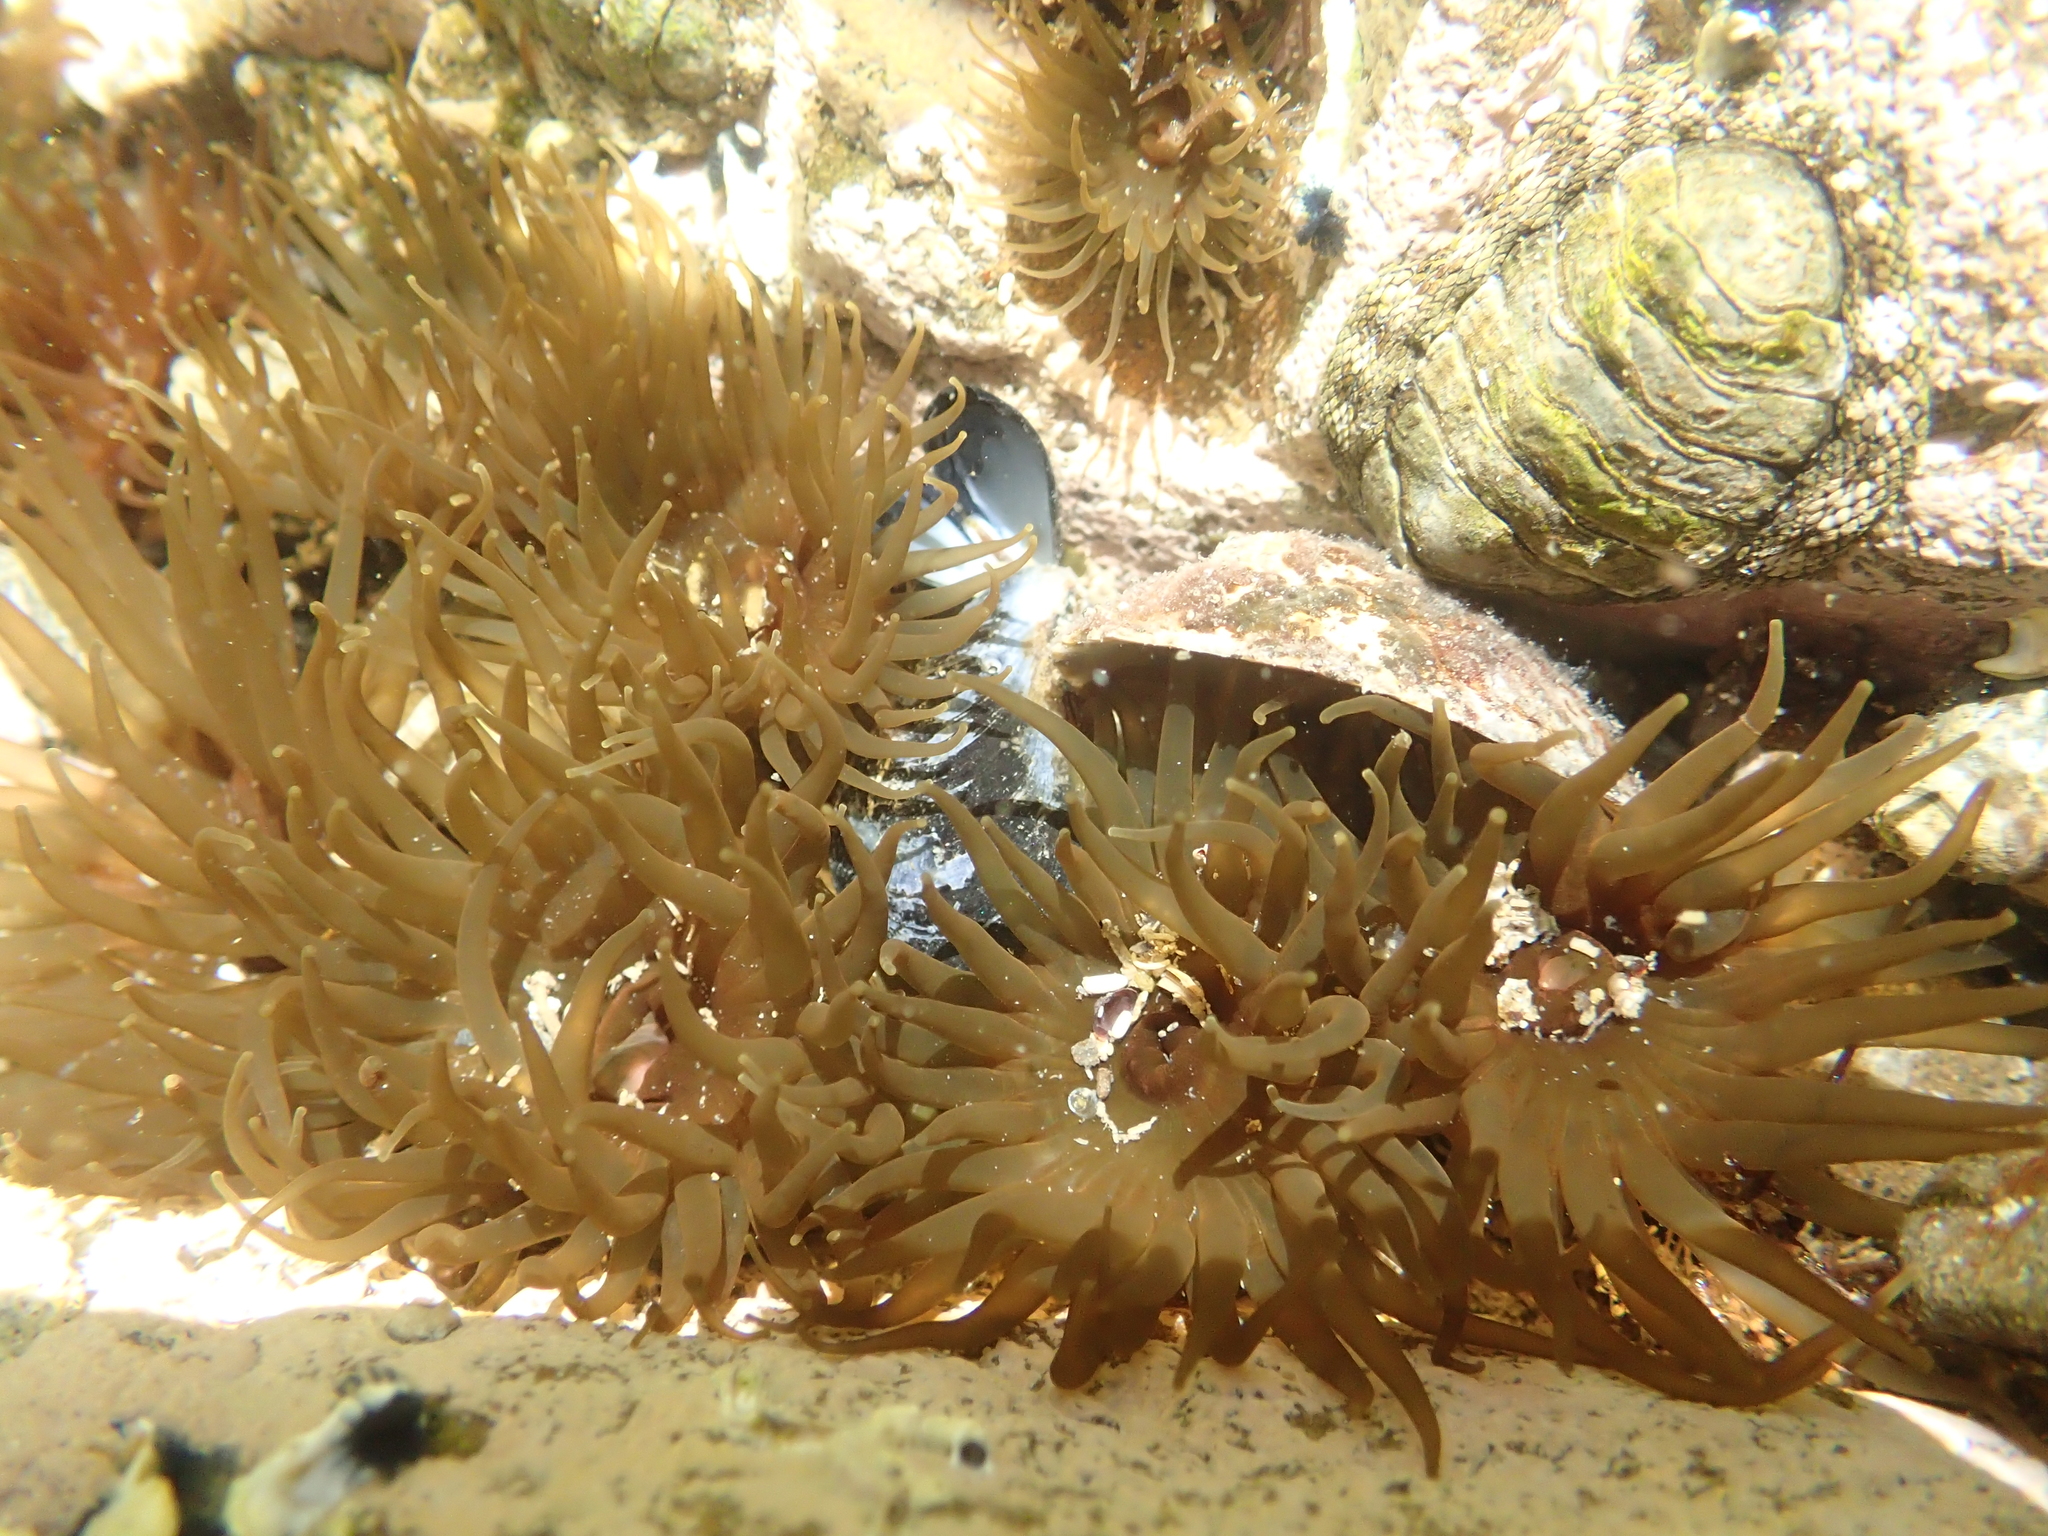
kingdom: Animalia
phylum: Cnidaria
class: Anthozoa
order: Actiniaria
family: Actiniidae
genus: Isactinia
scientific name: Isactinia olivacea
